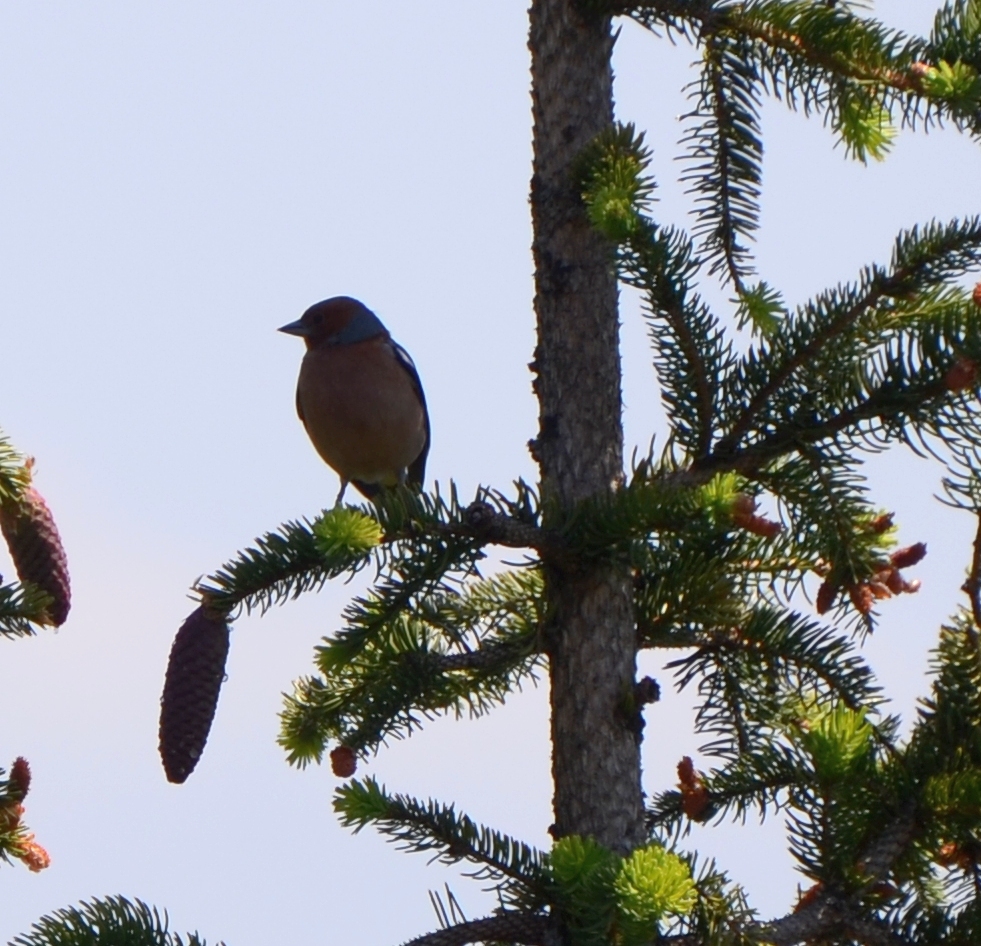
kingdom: Animalia
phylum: Chordata
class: Aves
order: Passeriformes
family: Fringillidae
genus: Fringilla
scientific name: Fringilla coelebs
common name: Common chaffinch
